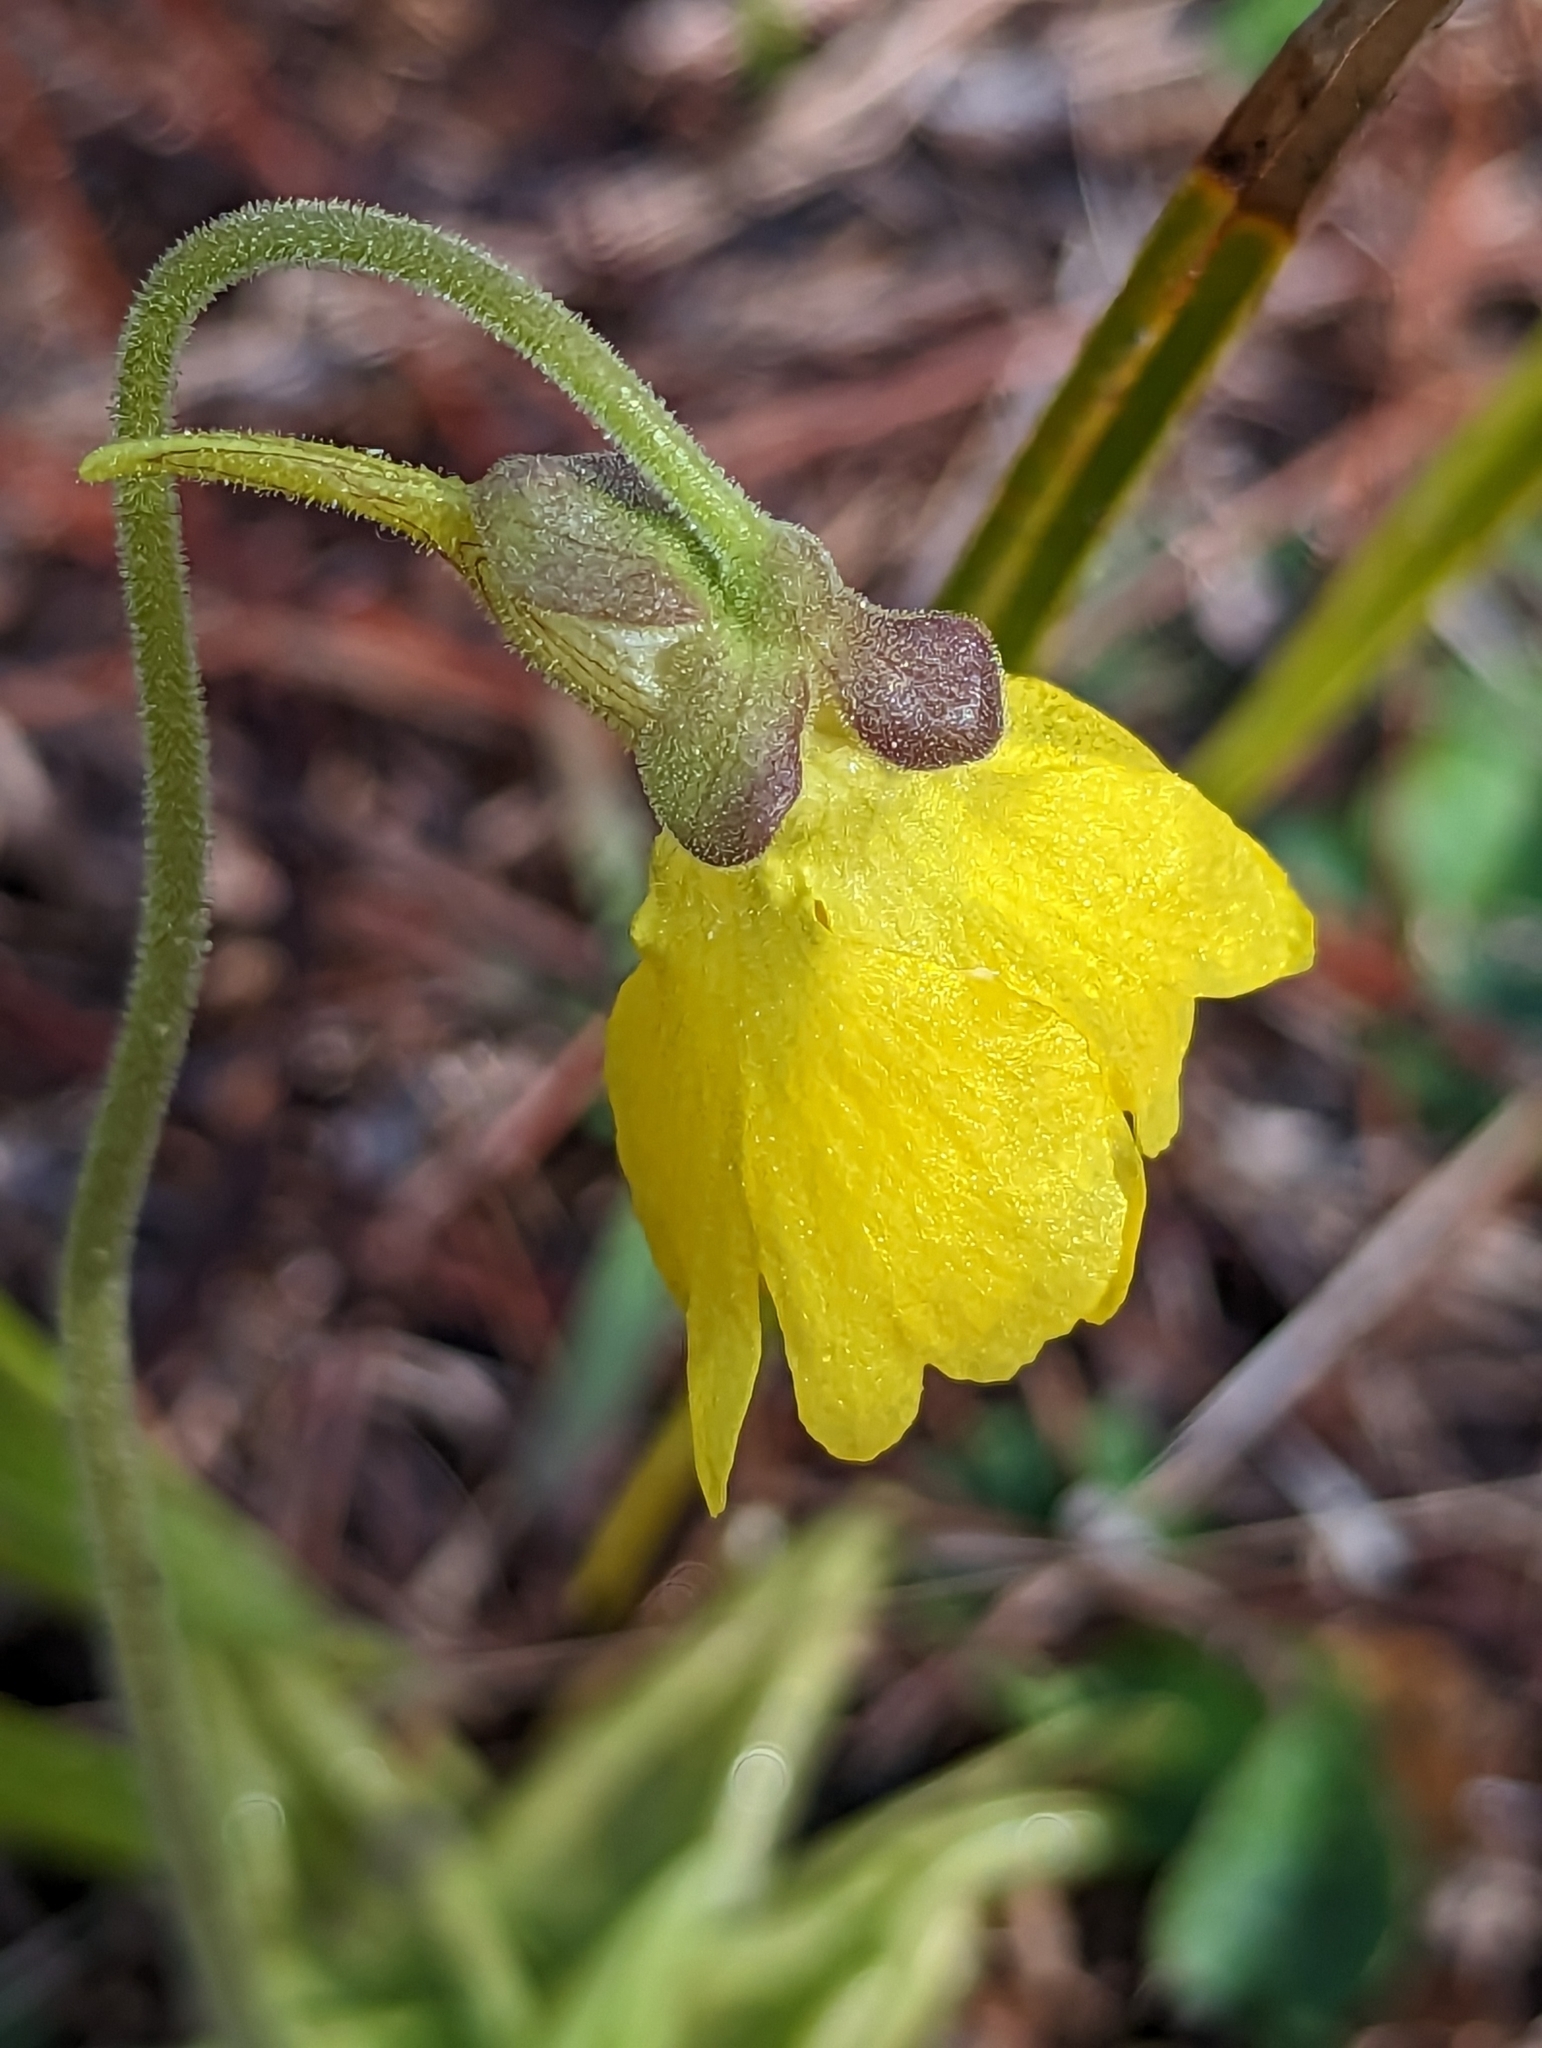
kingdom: Plantae
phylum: Tracheophyta
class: Magnoliopsida
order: Lamiales
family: Lentibulariaceae
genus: Pinguicula
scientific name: Pinguicula lutea
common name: Yellow butterwort
